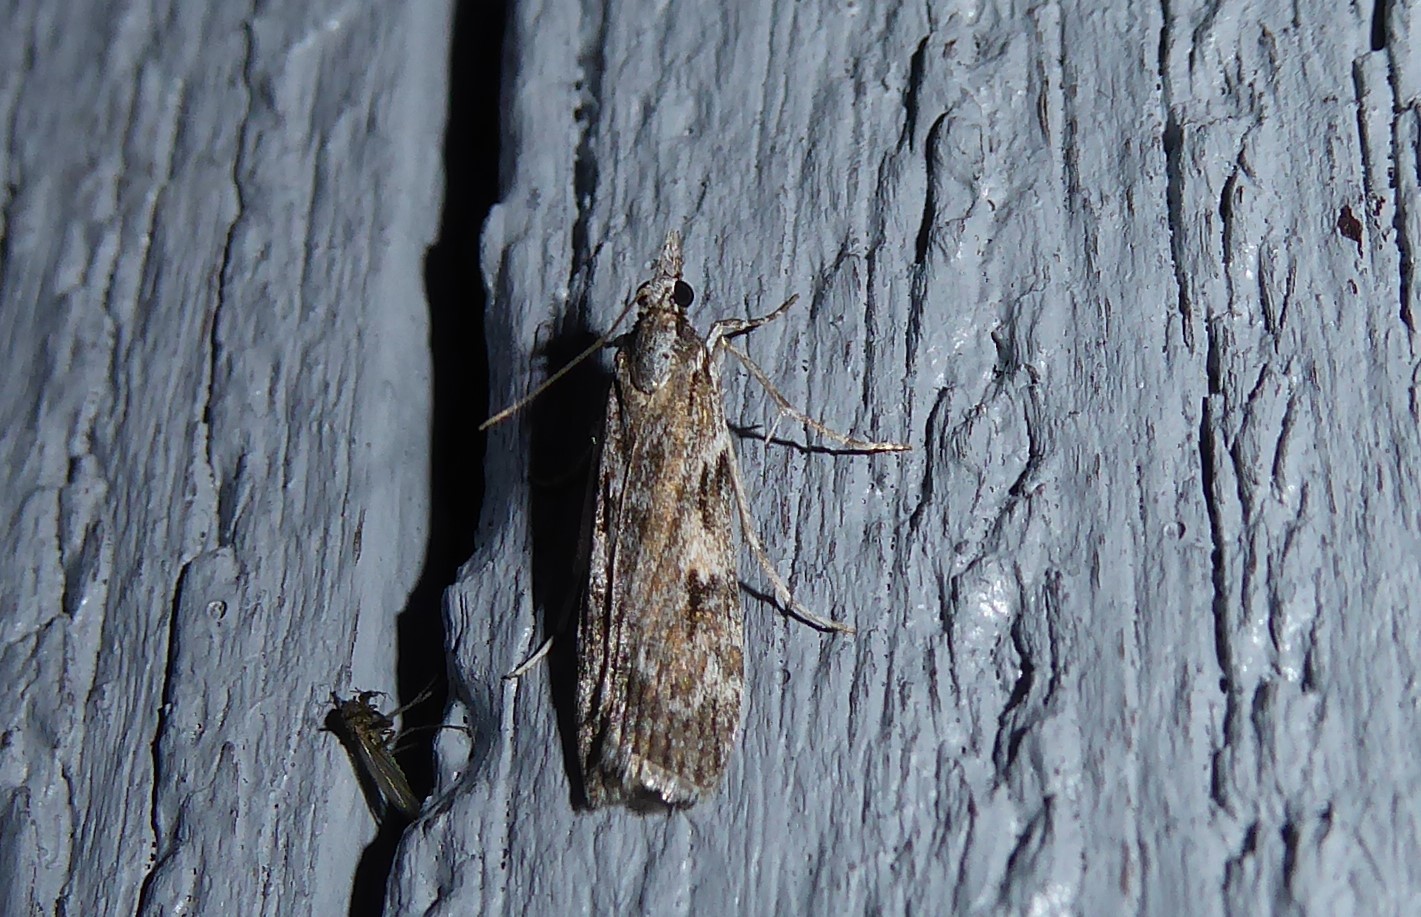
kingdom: Animalia
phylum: Arthropoda
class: Insecta
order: Lepidoptera
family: Crambidae
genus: Scoparia
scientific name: Scoparia halopis
